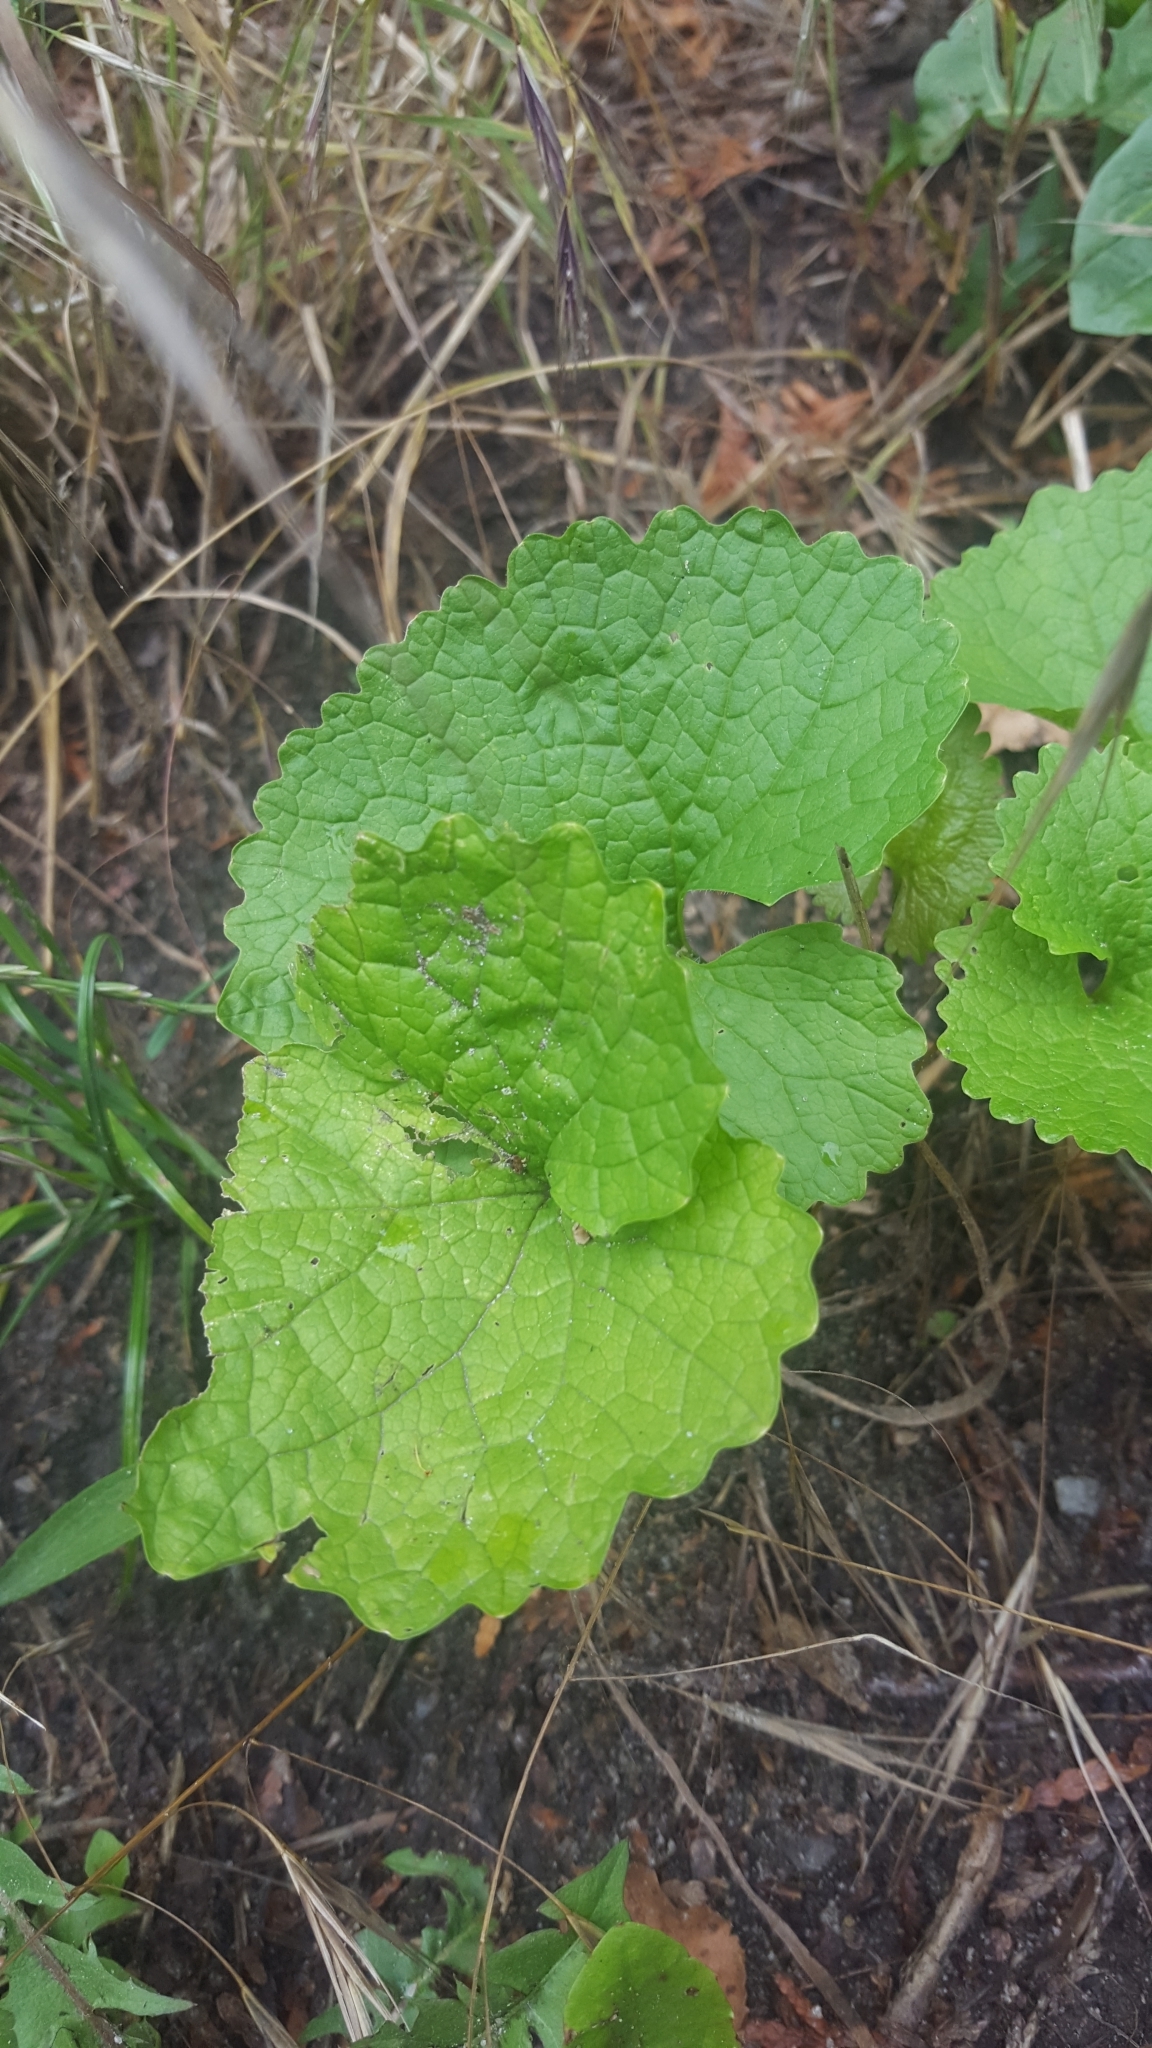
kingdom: Plantae
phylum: Tracheophyta
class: Magnoliopsida
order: Brassicales
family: Brassicaceae
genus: Alliaria
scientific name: Alliaria petiolata
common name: Garlic mustard
